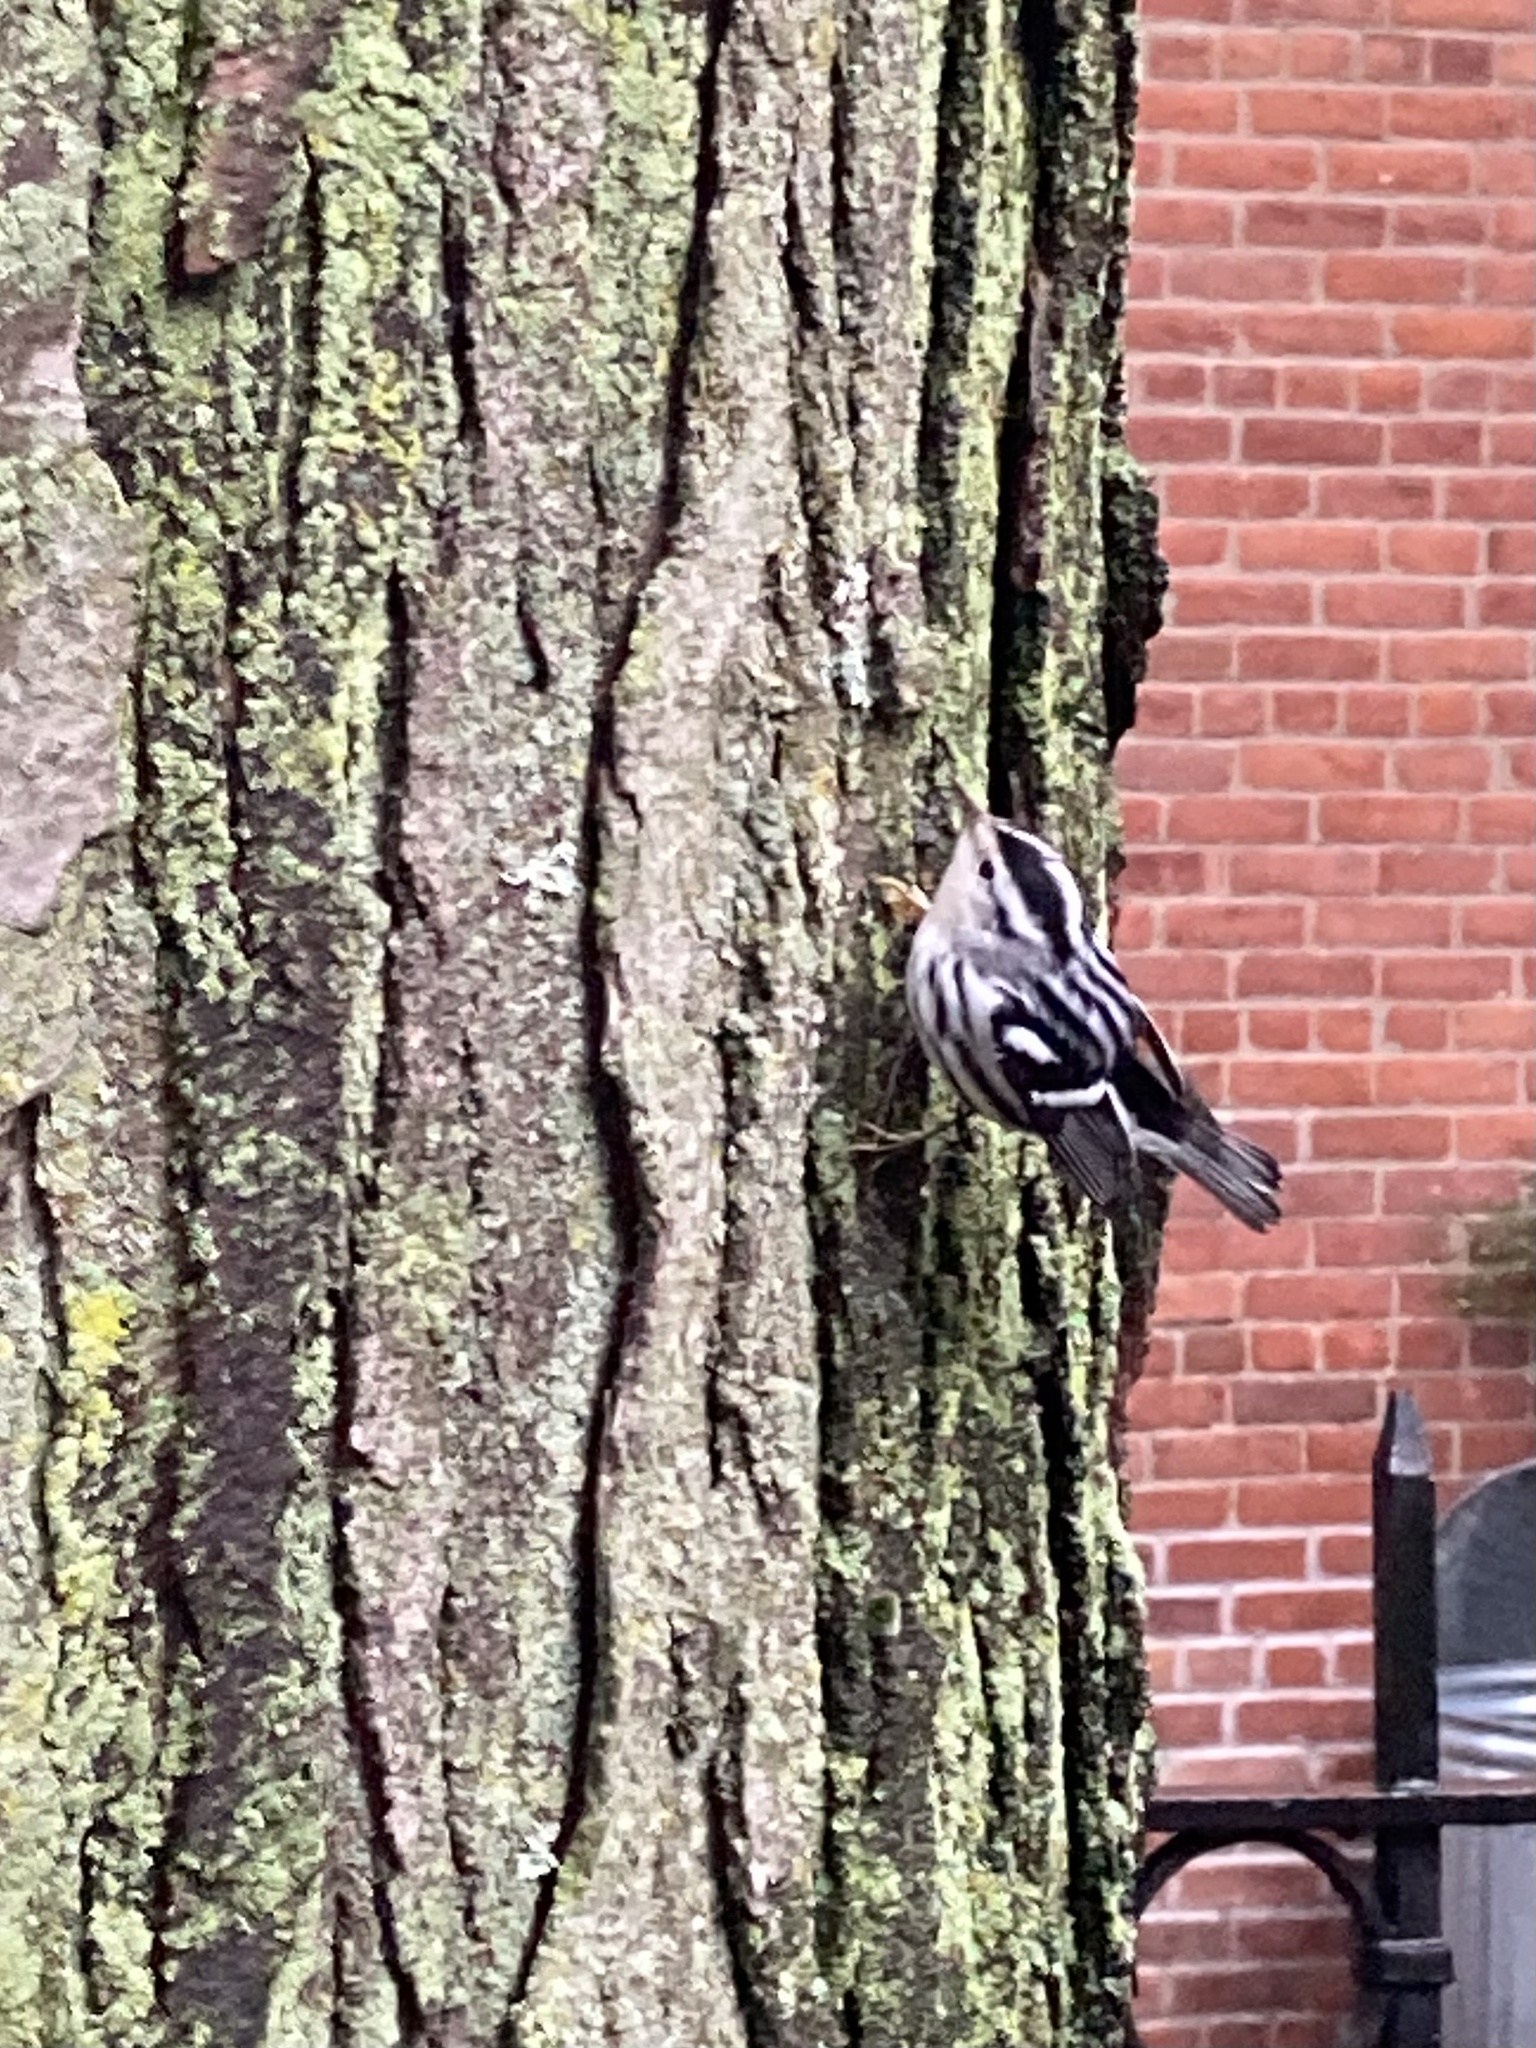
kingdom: Animalia
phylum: Chordata
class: Aves
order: Passeriformes
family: Parulidae
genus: Mniotilta
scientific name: Mniotilta varia
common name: Black-and-white warbler
